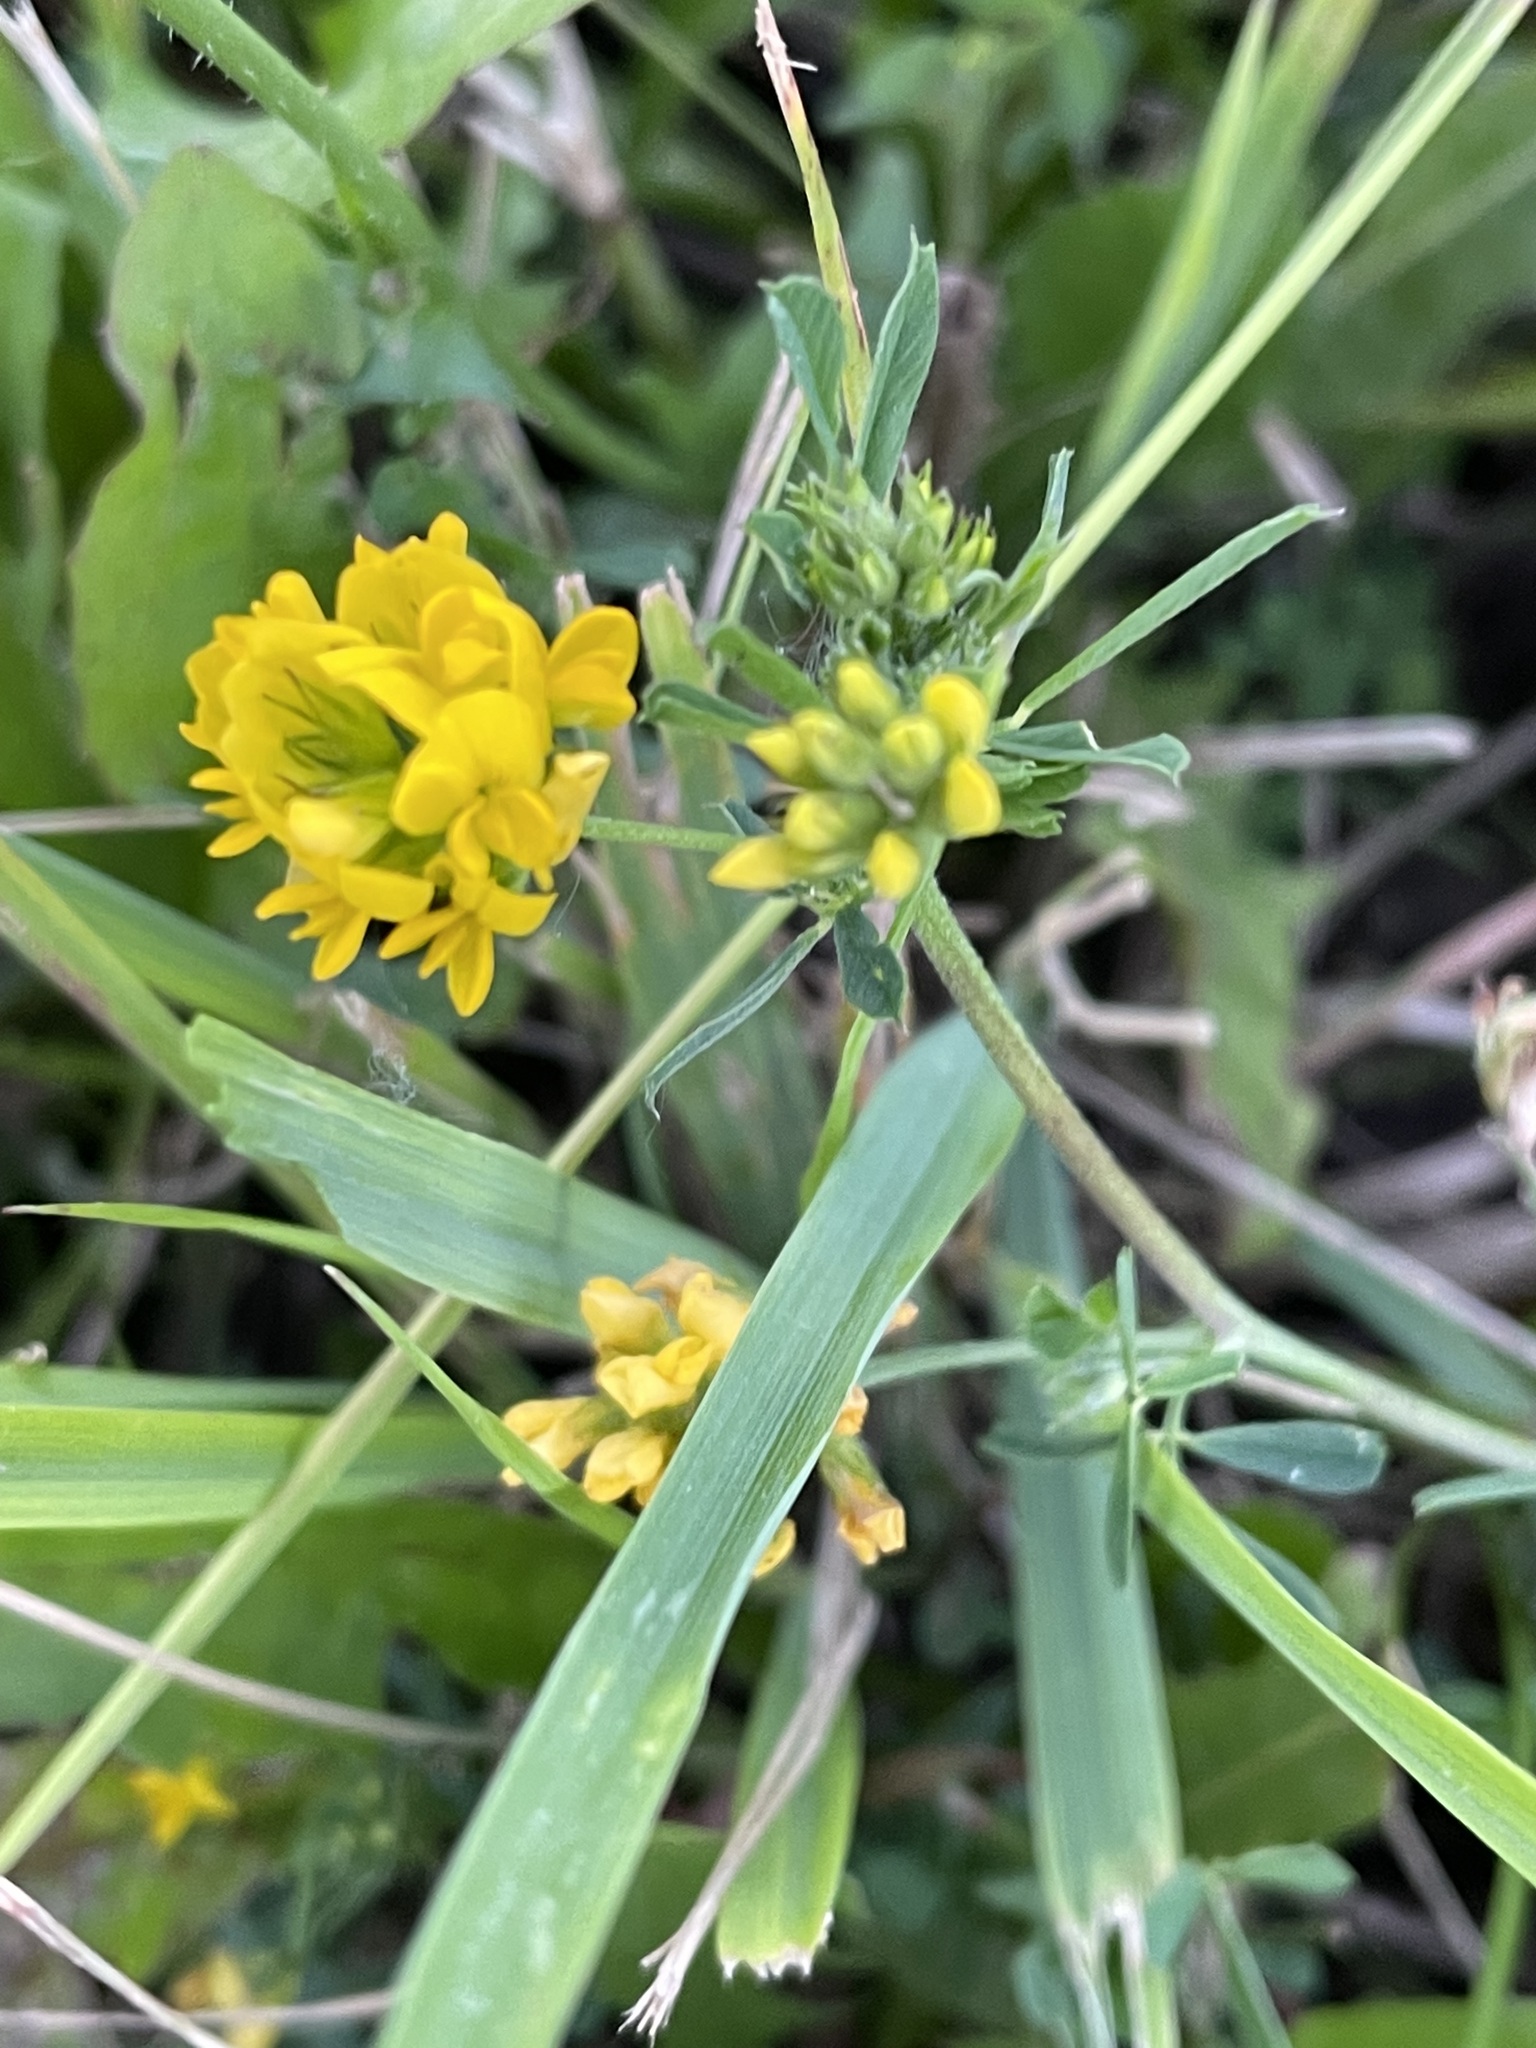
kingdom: Plantae
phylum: Tracheophyta
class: Magnoliopsida
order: Fabales
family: Fabaceae
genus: Medicago
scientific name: Medicago falcata
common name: Sickle medick
